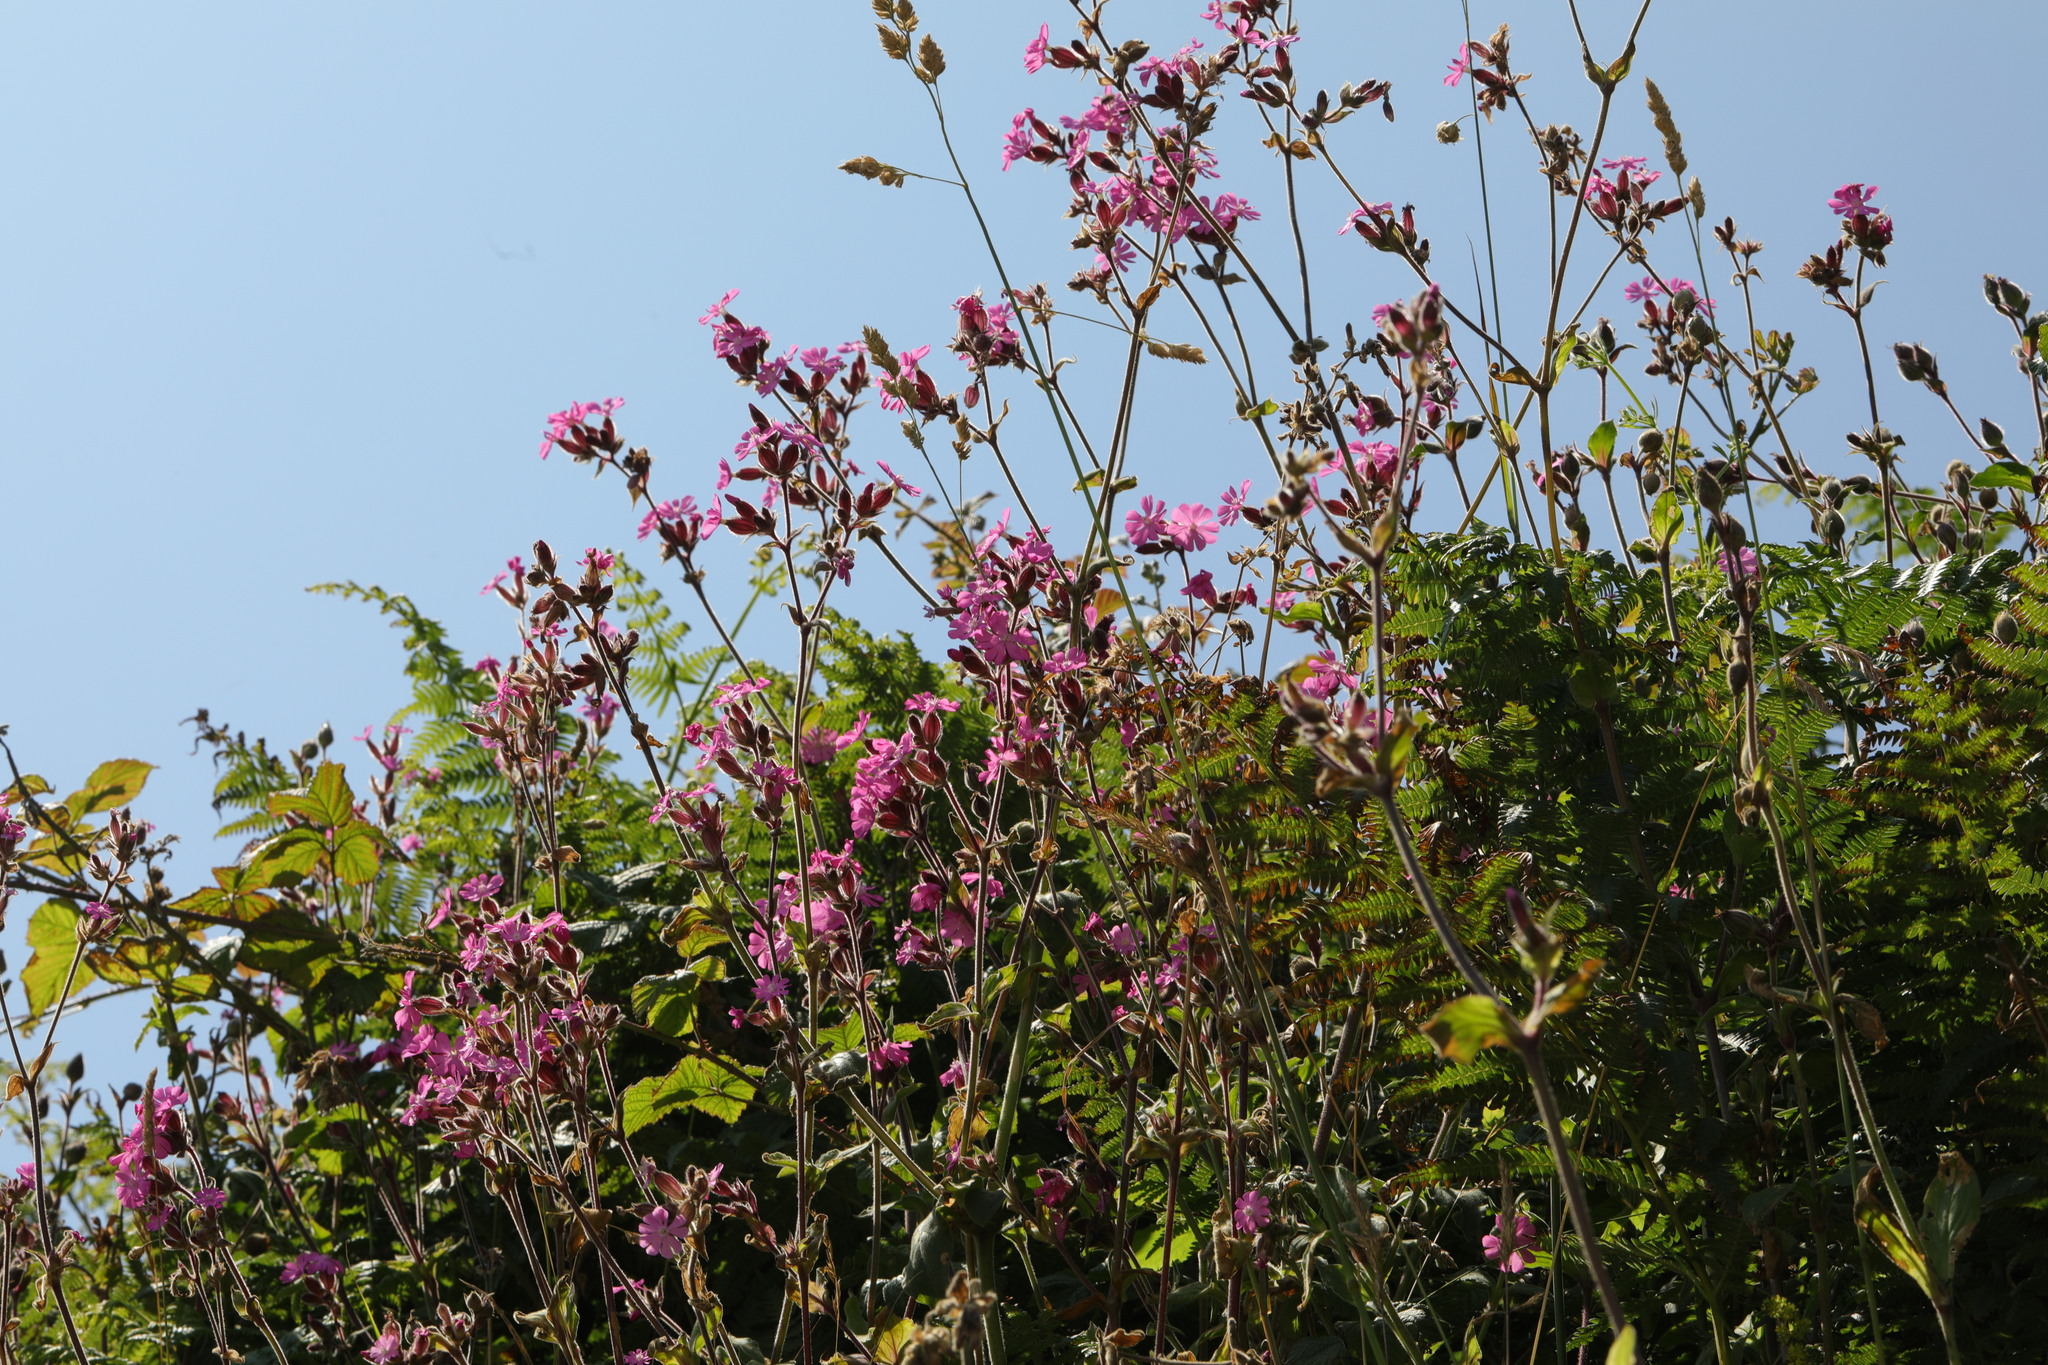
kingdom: Plantae
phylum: Tracheophyta
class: Magnoliopsida
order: Caryophyllales
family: Caryophyllaceae
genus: Silene
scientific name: Silene dioica
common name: Red campion
